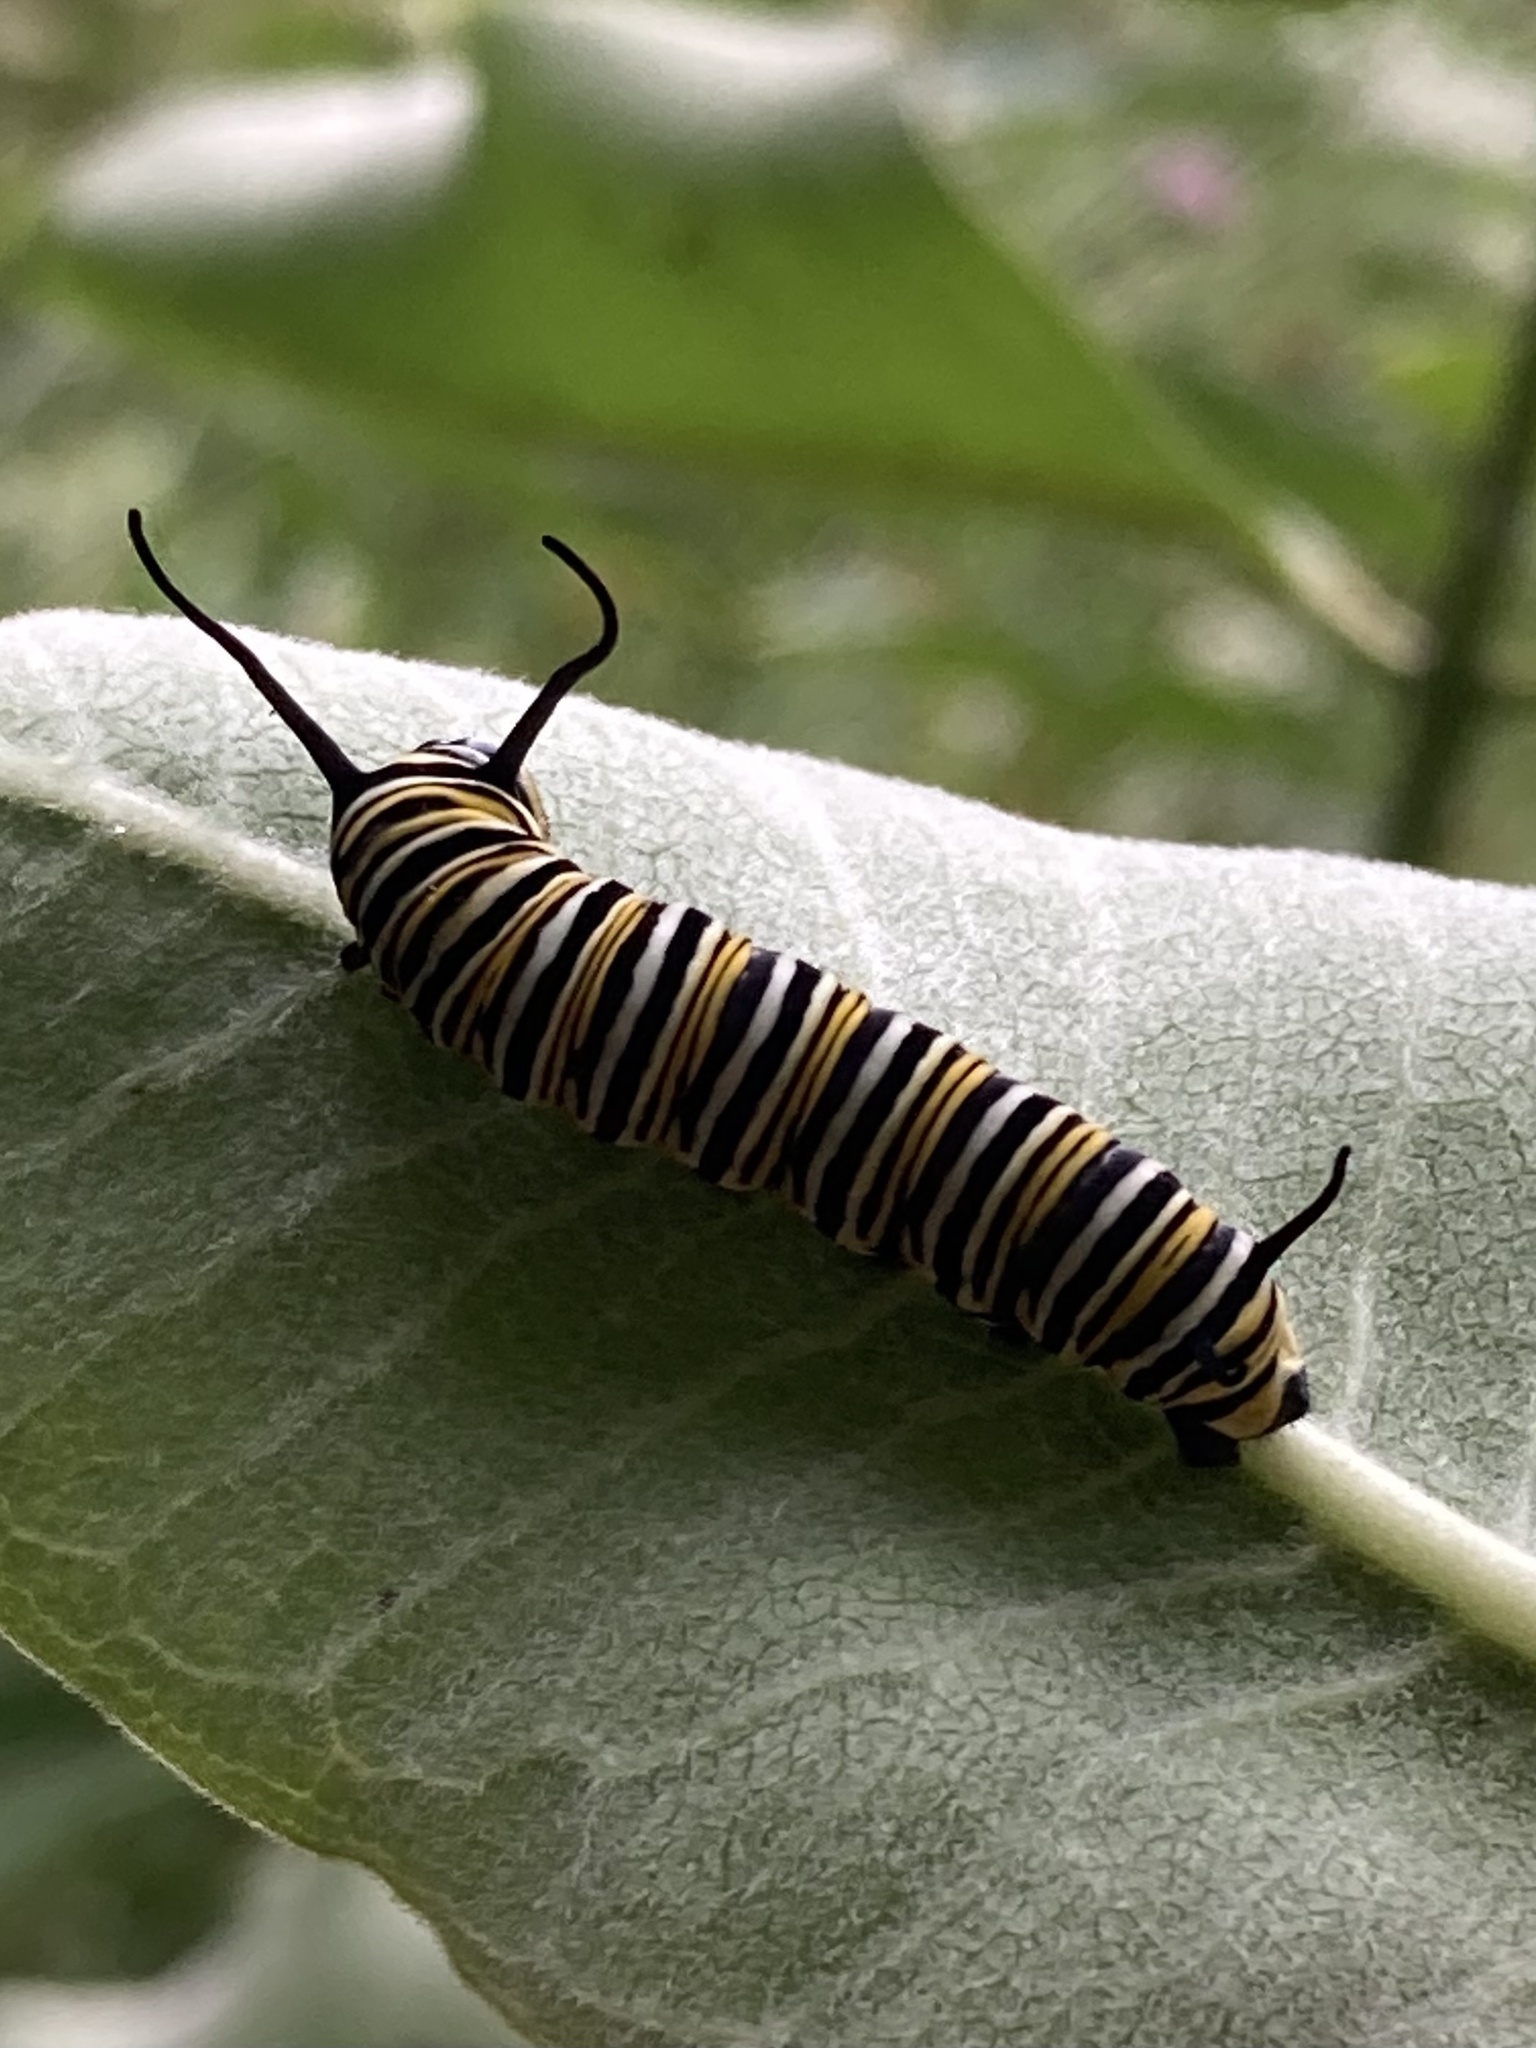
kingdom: Animalia
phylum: Arthropoda
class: Insecta
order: Lepidoptera
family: Nymphalidae
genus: Danaus
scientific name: Danaus plexippus
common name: Monarch
